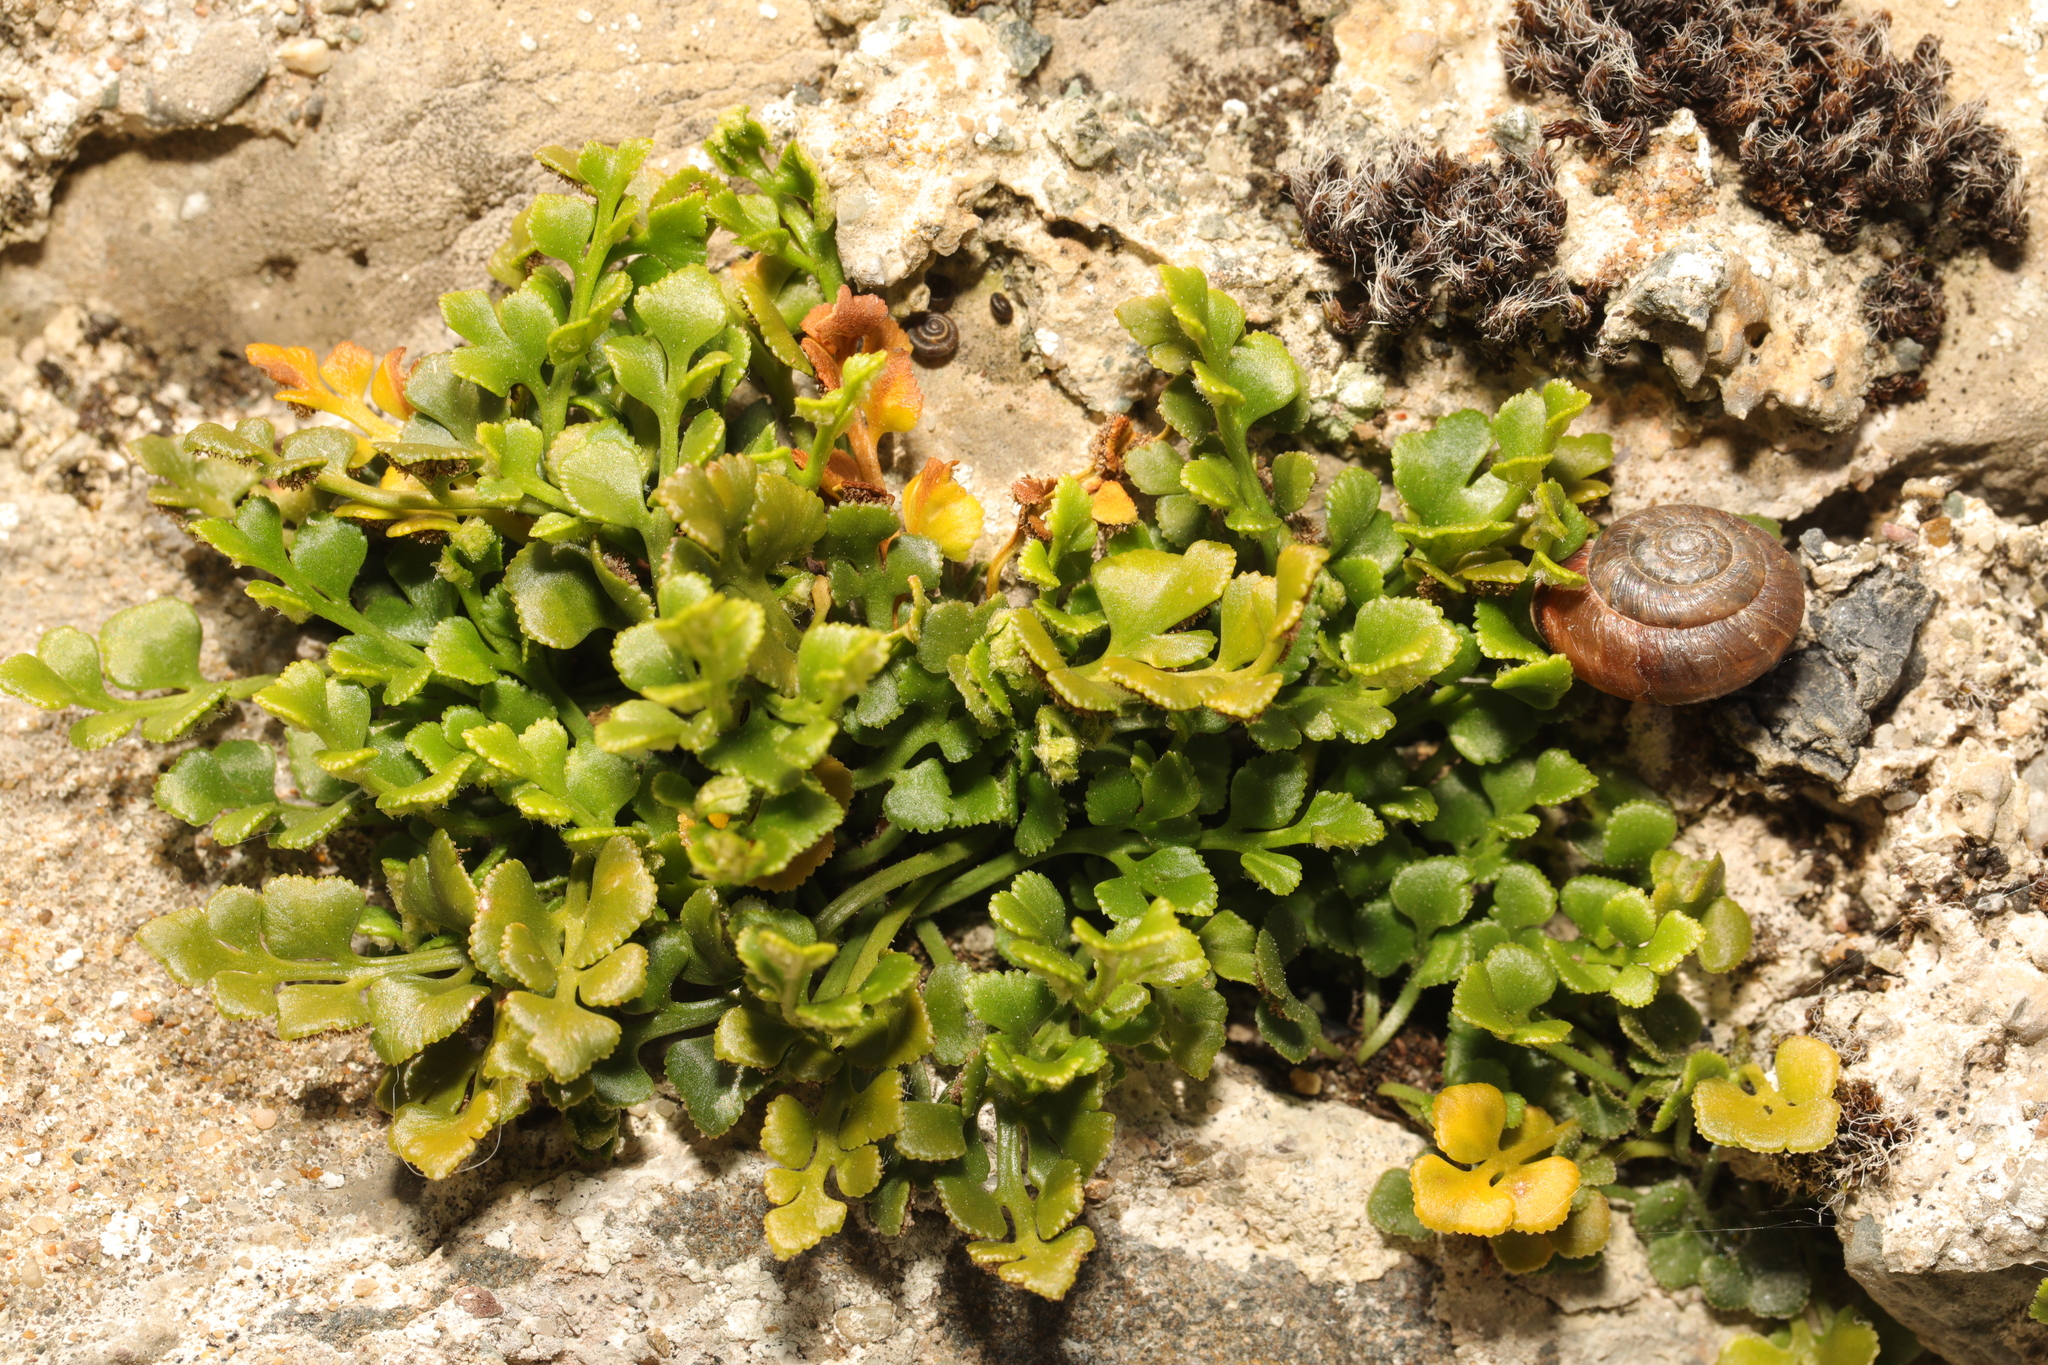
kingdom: Plantae
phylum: Tracheophyta
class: Polypodiopsida
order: Polypodiales
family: Aspleniaceae
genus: Asplenium
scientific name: Asplenium ruta-muraria
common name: Wall-rue
